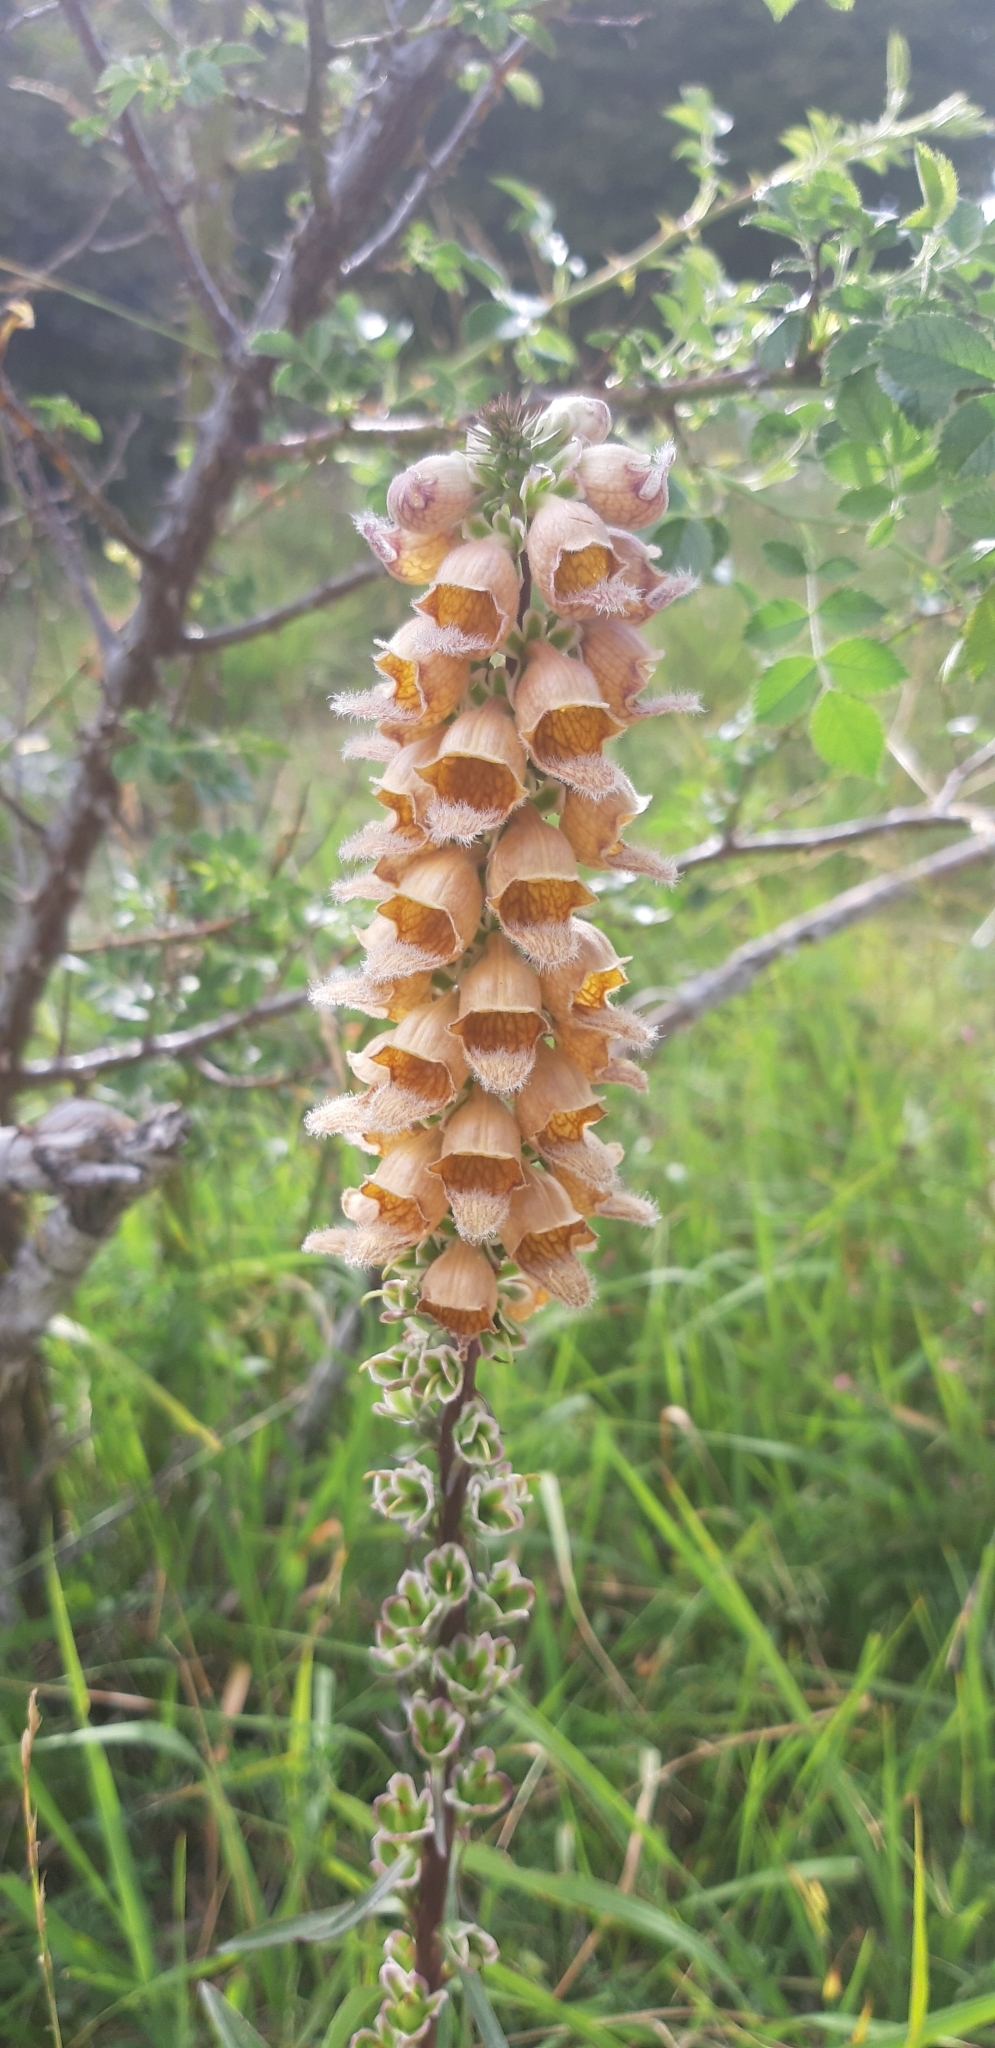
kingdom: Plantae
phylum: Tracheophyta
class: Magnoliopsida
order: Lamiales
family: Plantaginaceae
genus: Digitalis
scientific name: Digitalis ferruginea
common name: Rusty foxglove
